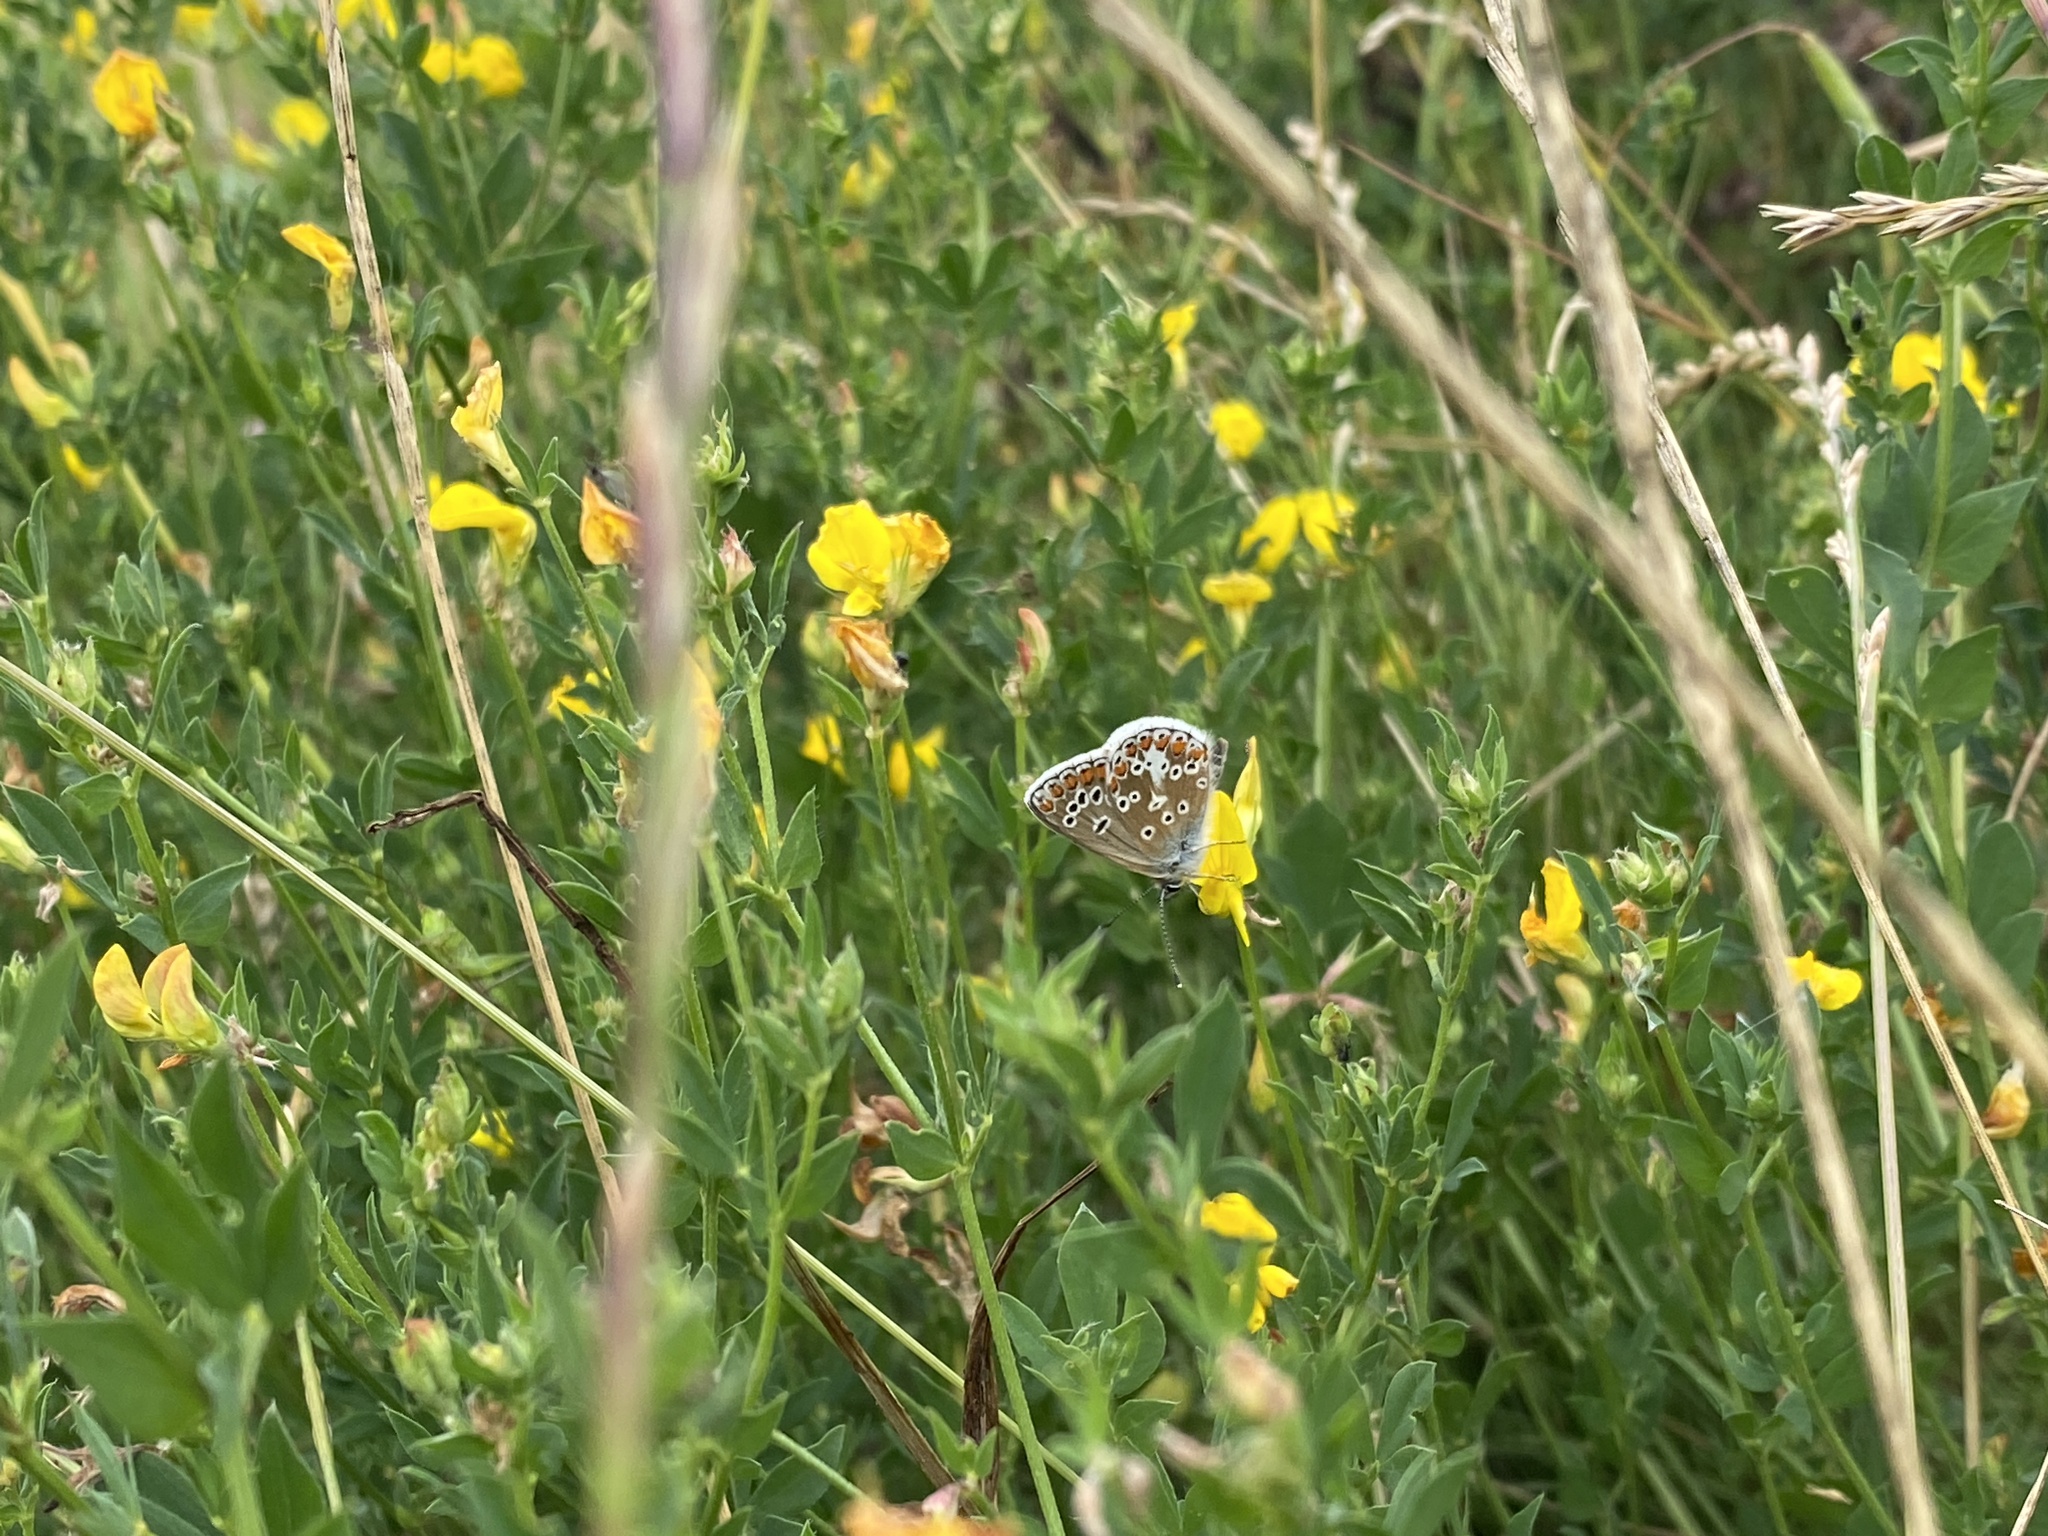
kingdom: Animalia
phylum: Arthropoda
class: Insecta
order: Lepidoptera
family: Lycaenidae
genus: Aricia
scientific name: Aricia agestis
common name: Brown argus
